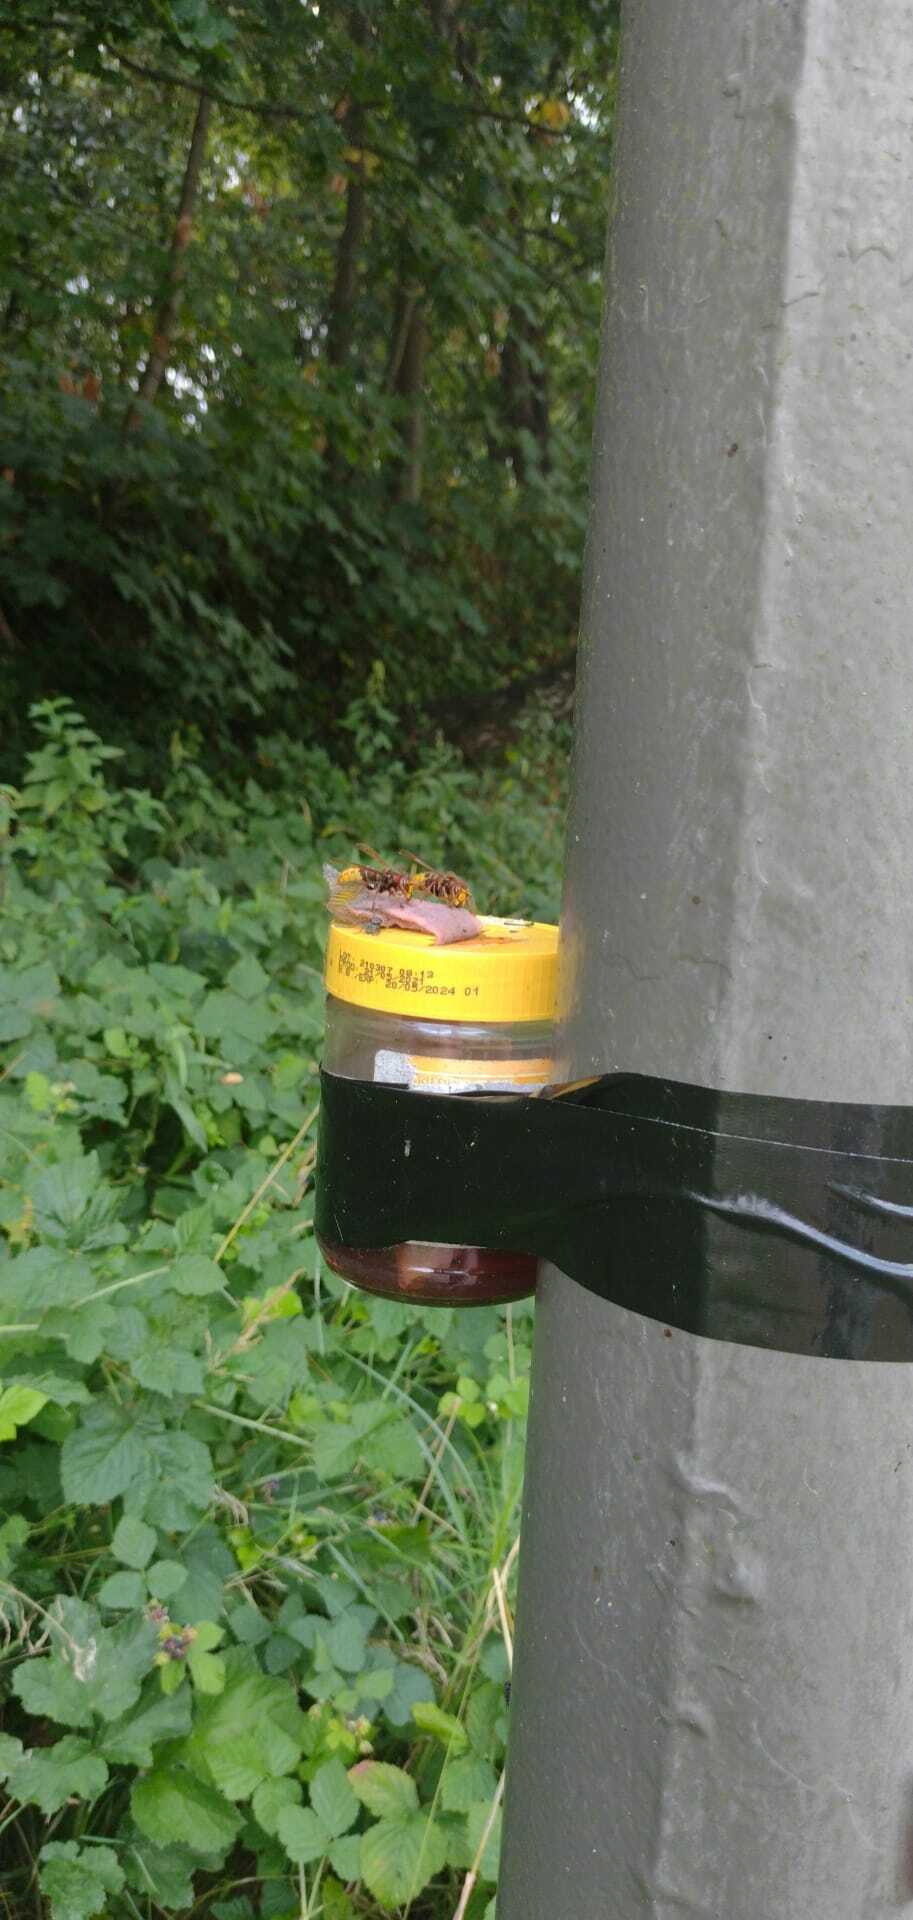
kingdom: Animalia
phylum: Arthropoda
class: Insecta
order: Hymenoptera
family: Vespidae
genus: Vespa
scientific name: Vespa crabro
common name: Hornet
